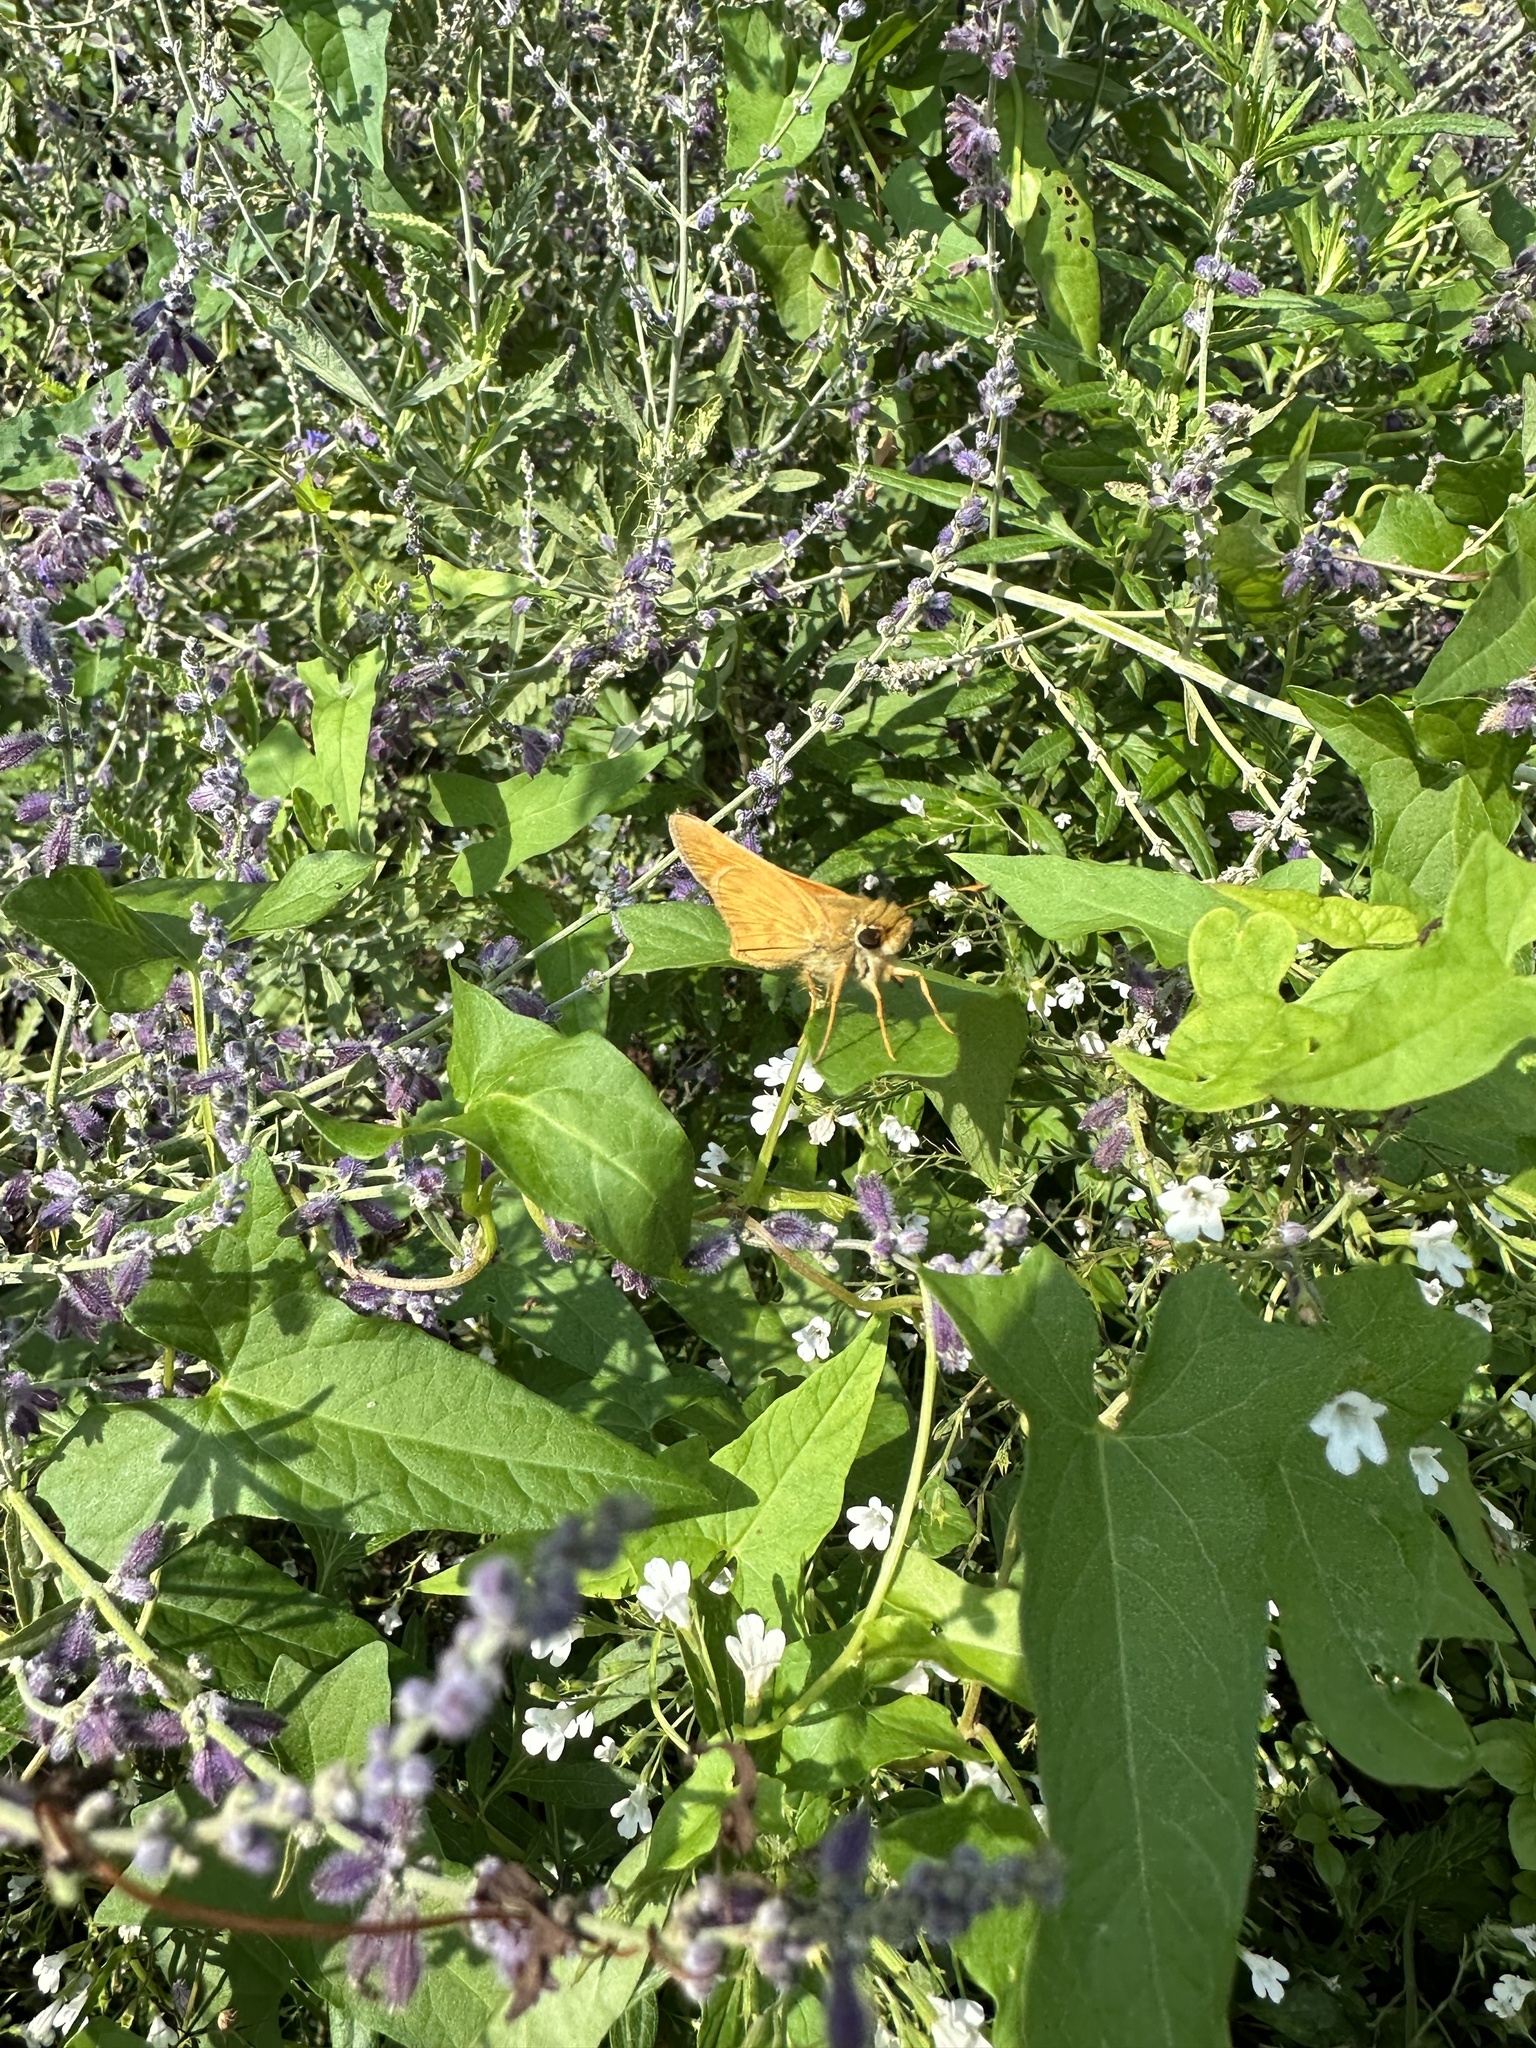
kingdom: Animalia
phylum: Arthropoda
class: Insecta
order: Lepidoptera
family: Hesperiidae
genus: Atalopedes
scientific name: Atalopedes
